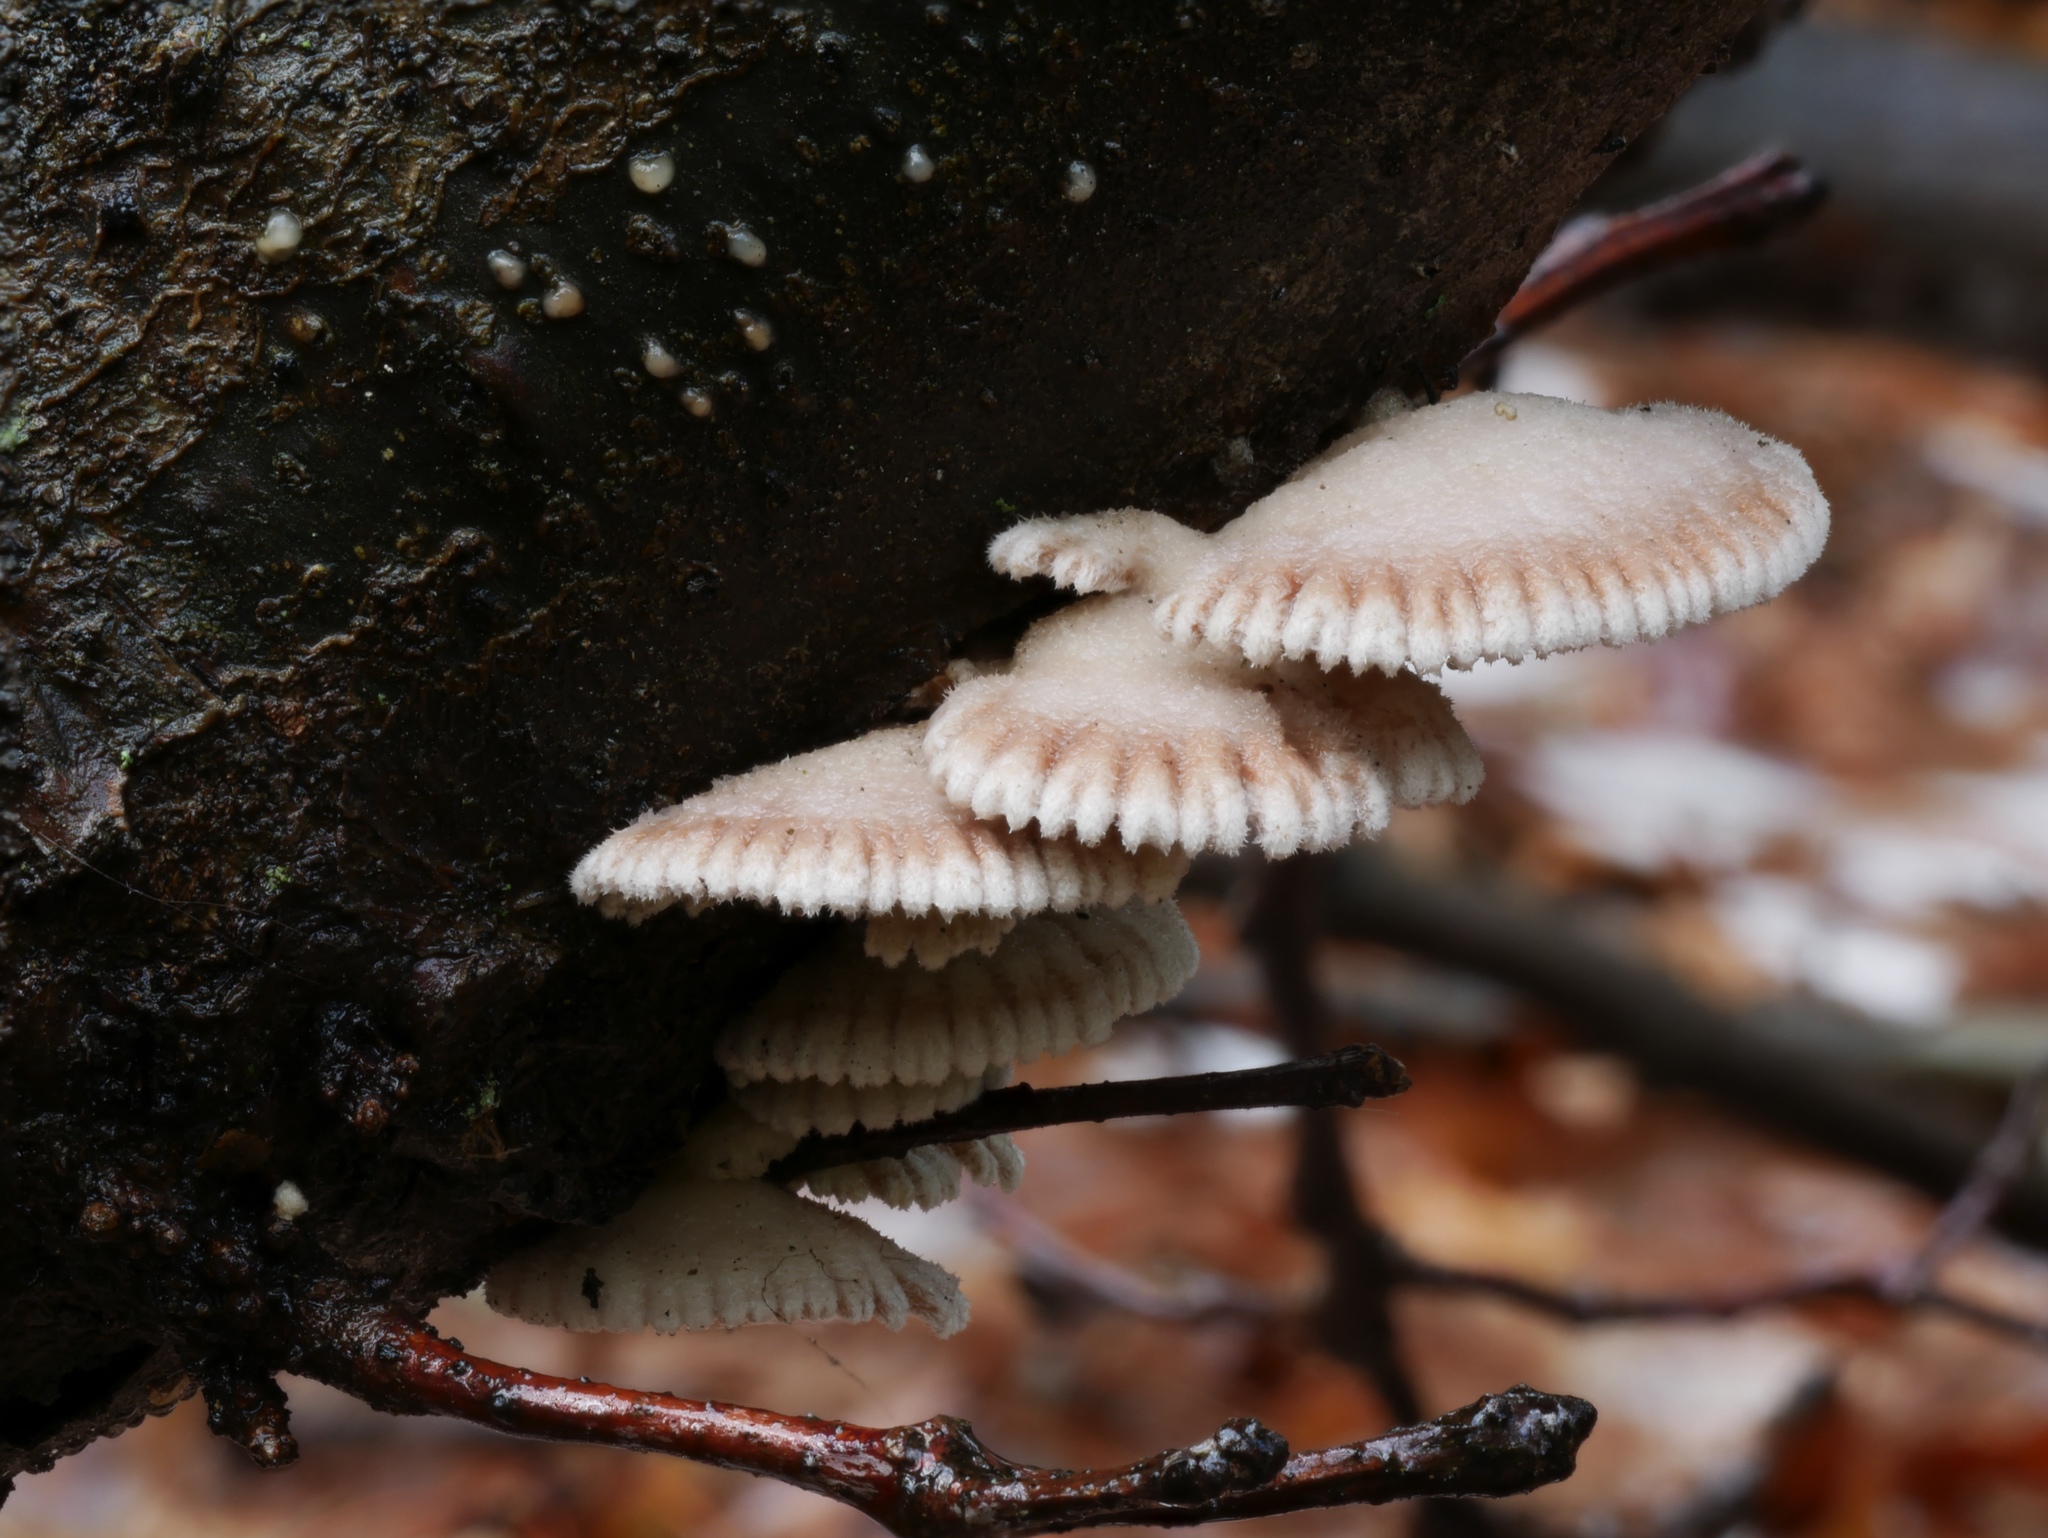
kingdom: Fungi
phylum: Basidiomycota
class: Agaricomycetes
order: Agaricales
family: Schizophyllaceae
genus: Schizophyllum
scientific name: Schizophyllum commune
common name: Common porecrust
